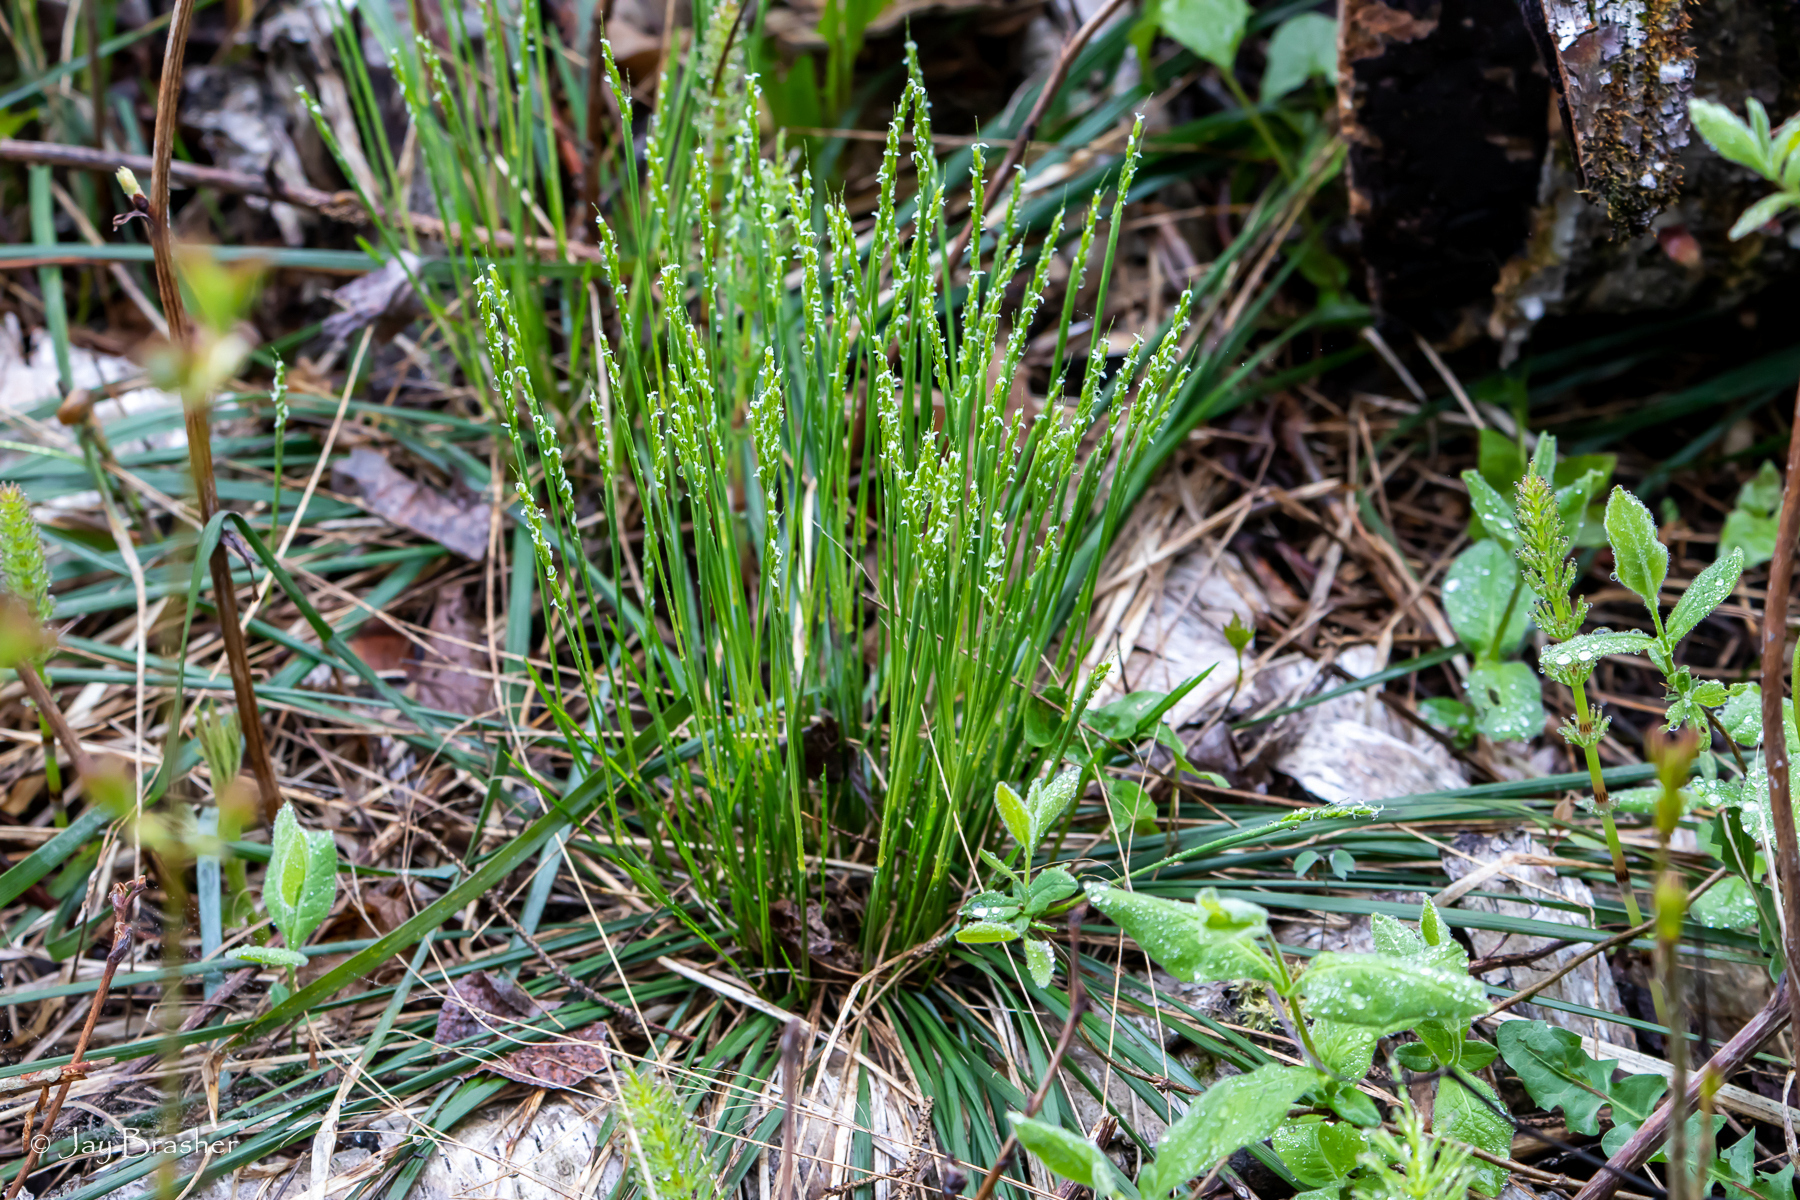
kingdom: Plantae
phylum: Tracheophyta
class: Liliopsida
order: Poales
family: Poaceae
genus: Oryzopsis
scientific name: Oryzopsis asperifolia
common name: Rough-leaved mountain rice
